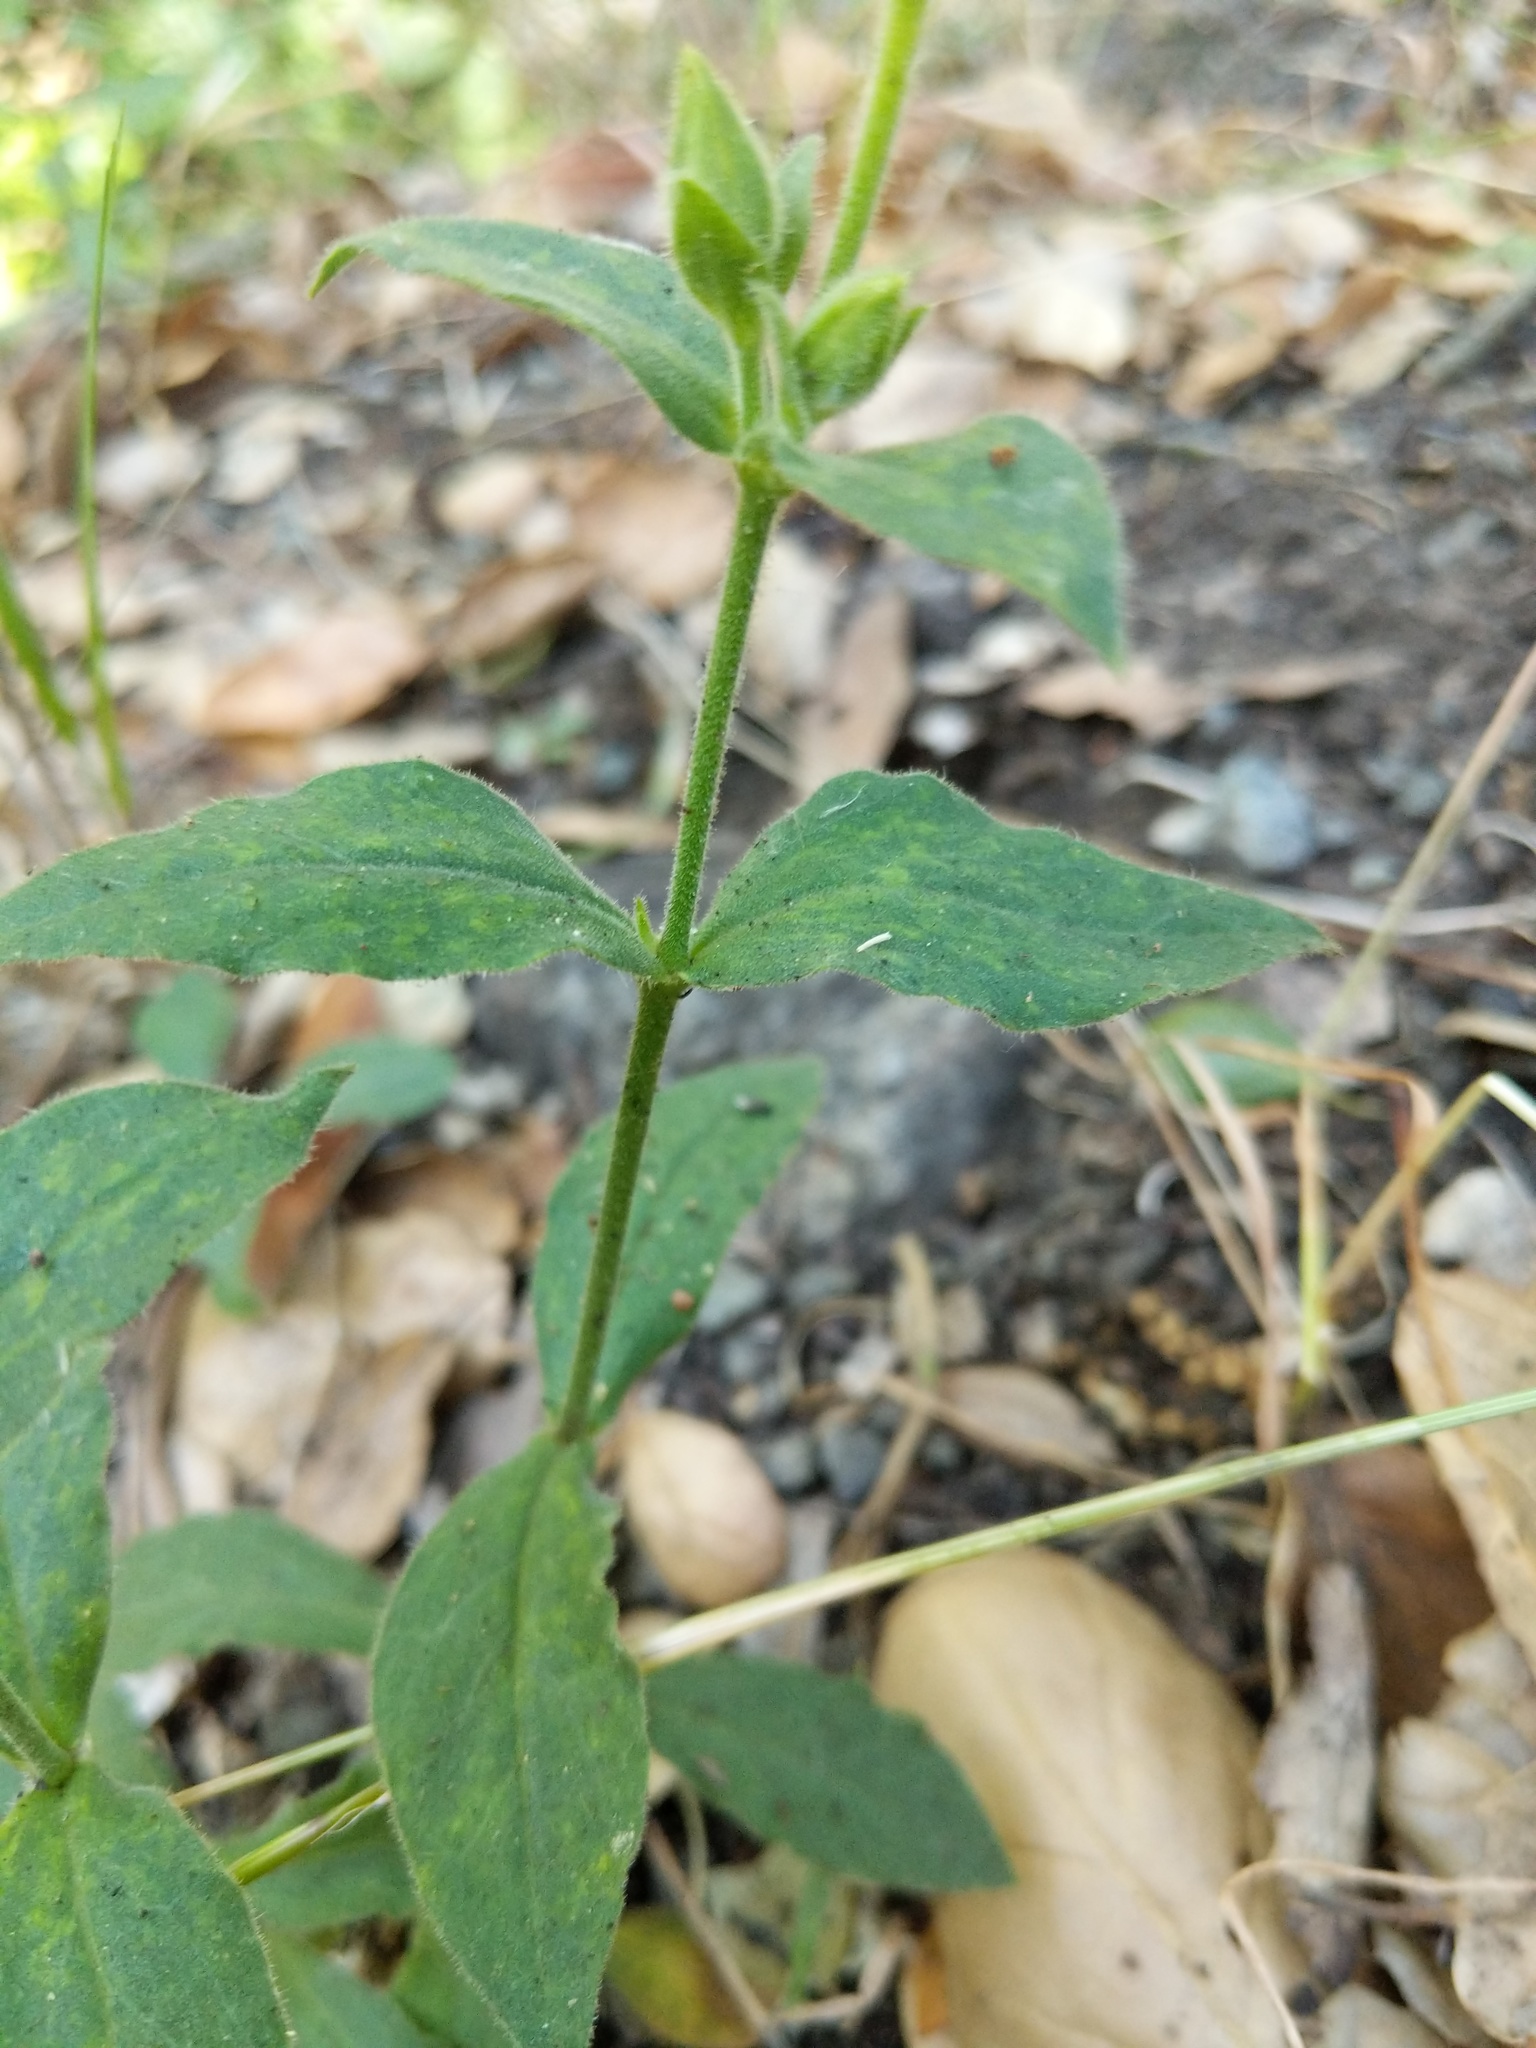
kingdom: Plantae
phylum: Tracheophyta
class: Magnoliopsida
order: Caryophyllales
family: Caryophyllaceae
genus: Silene
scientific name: Silene laciniata
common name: Indian-pink
